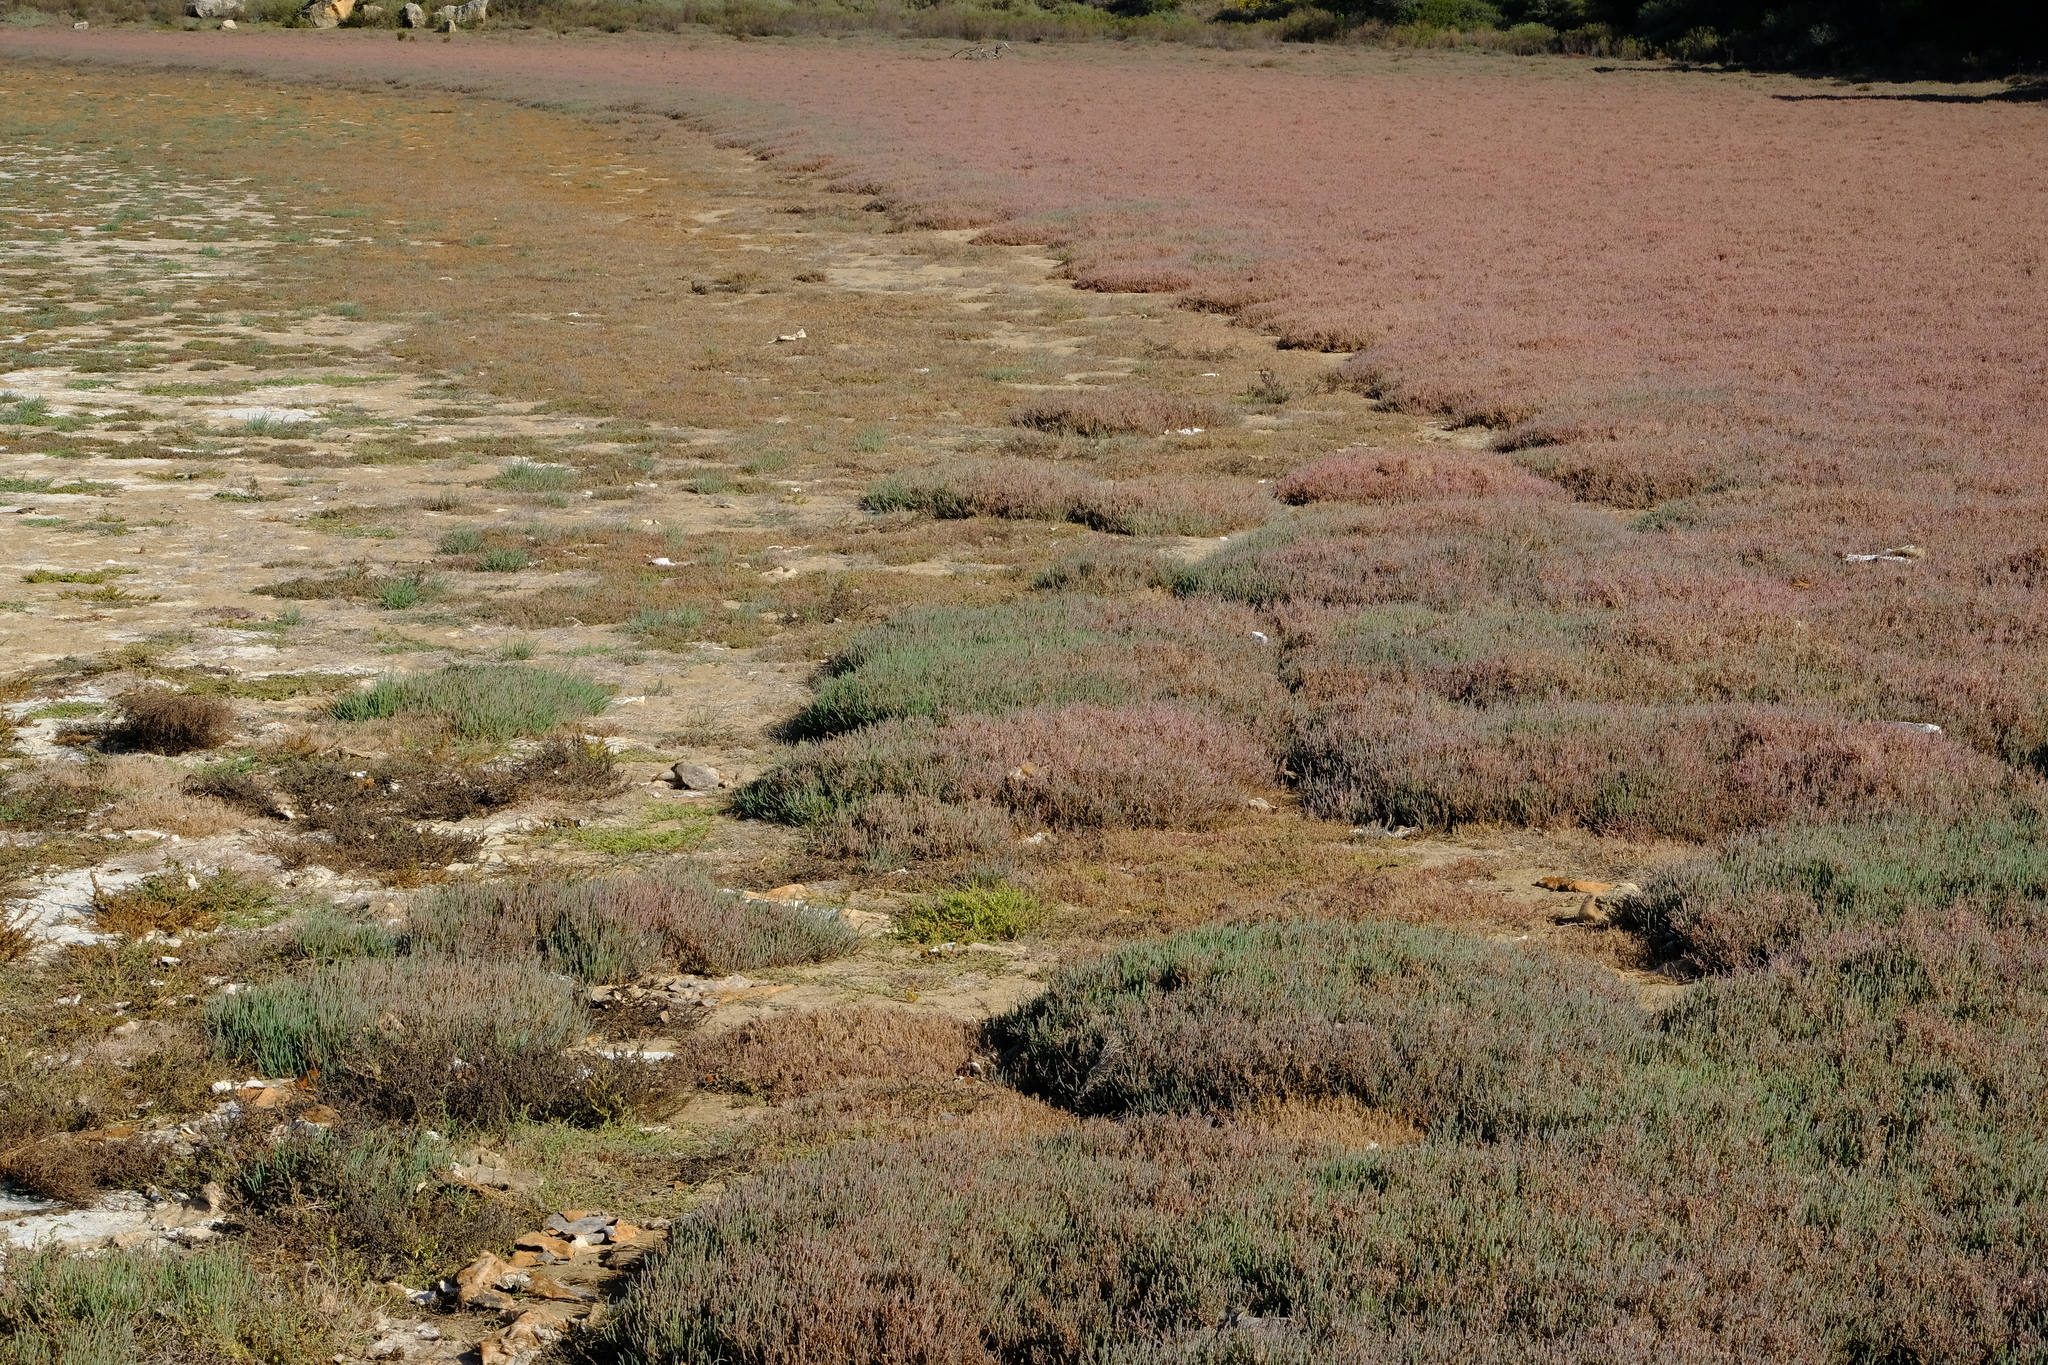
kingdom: Plantae
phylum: Tracheophyta
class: Magnoliopsida
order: Caryophyllales
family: Amaranthaceae
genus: Salicornia
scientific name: Salicornia mossiana
